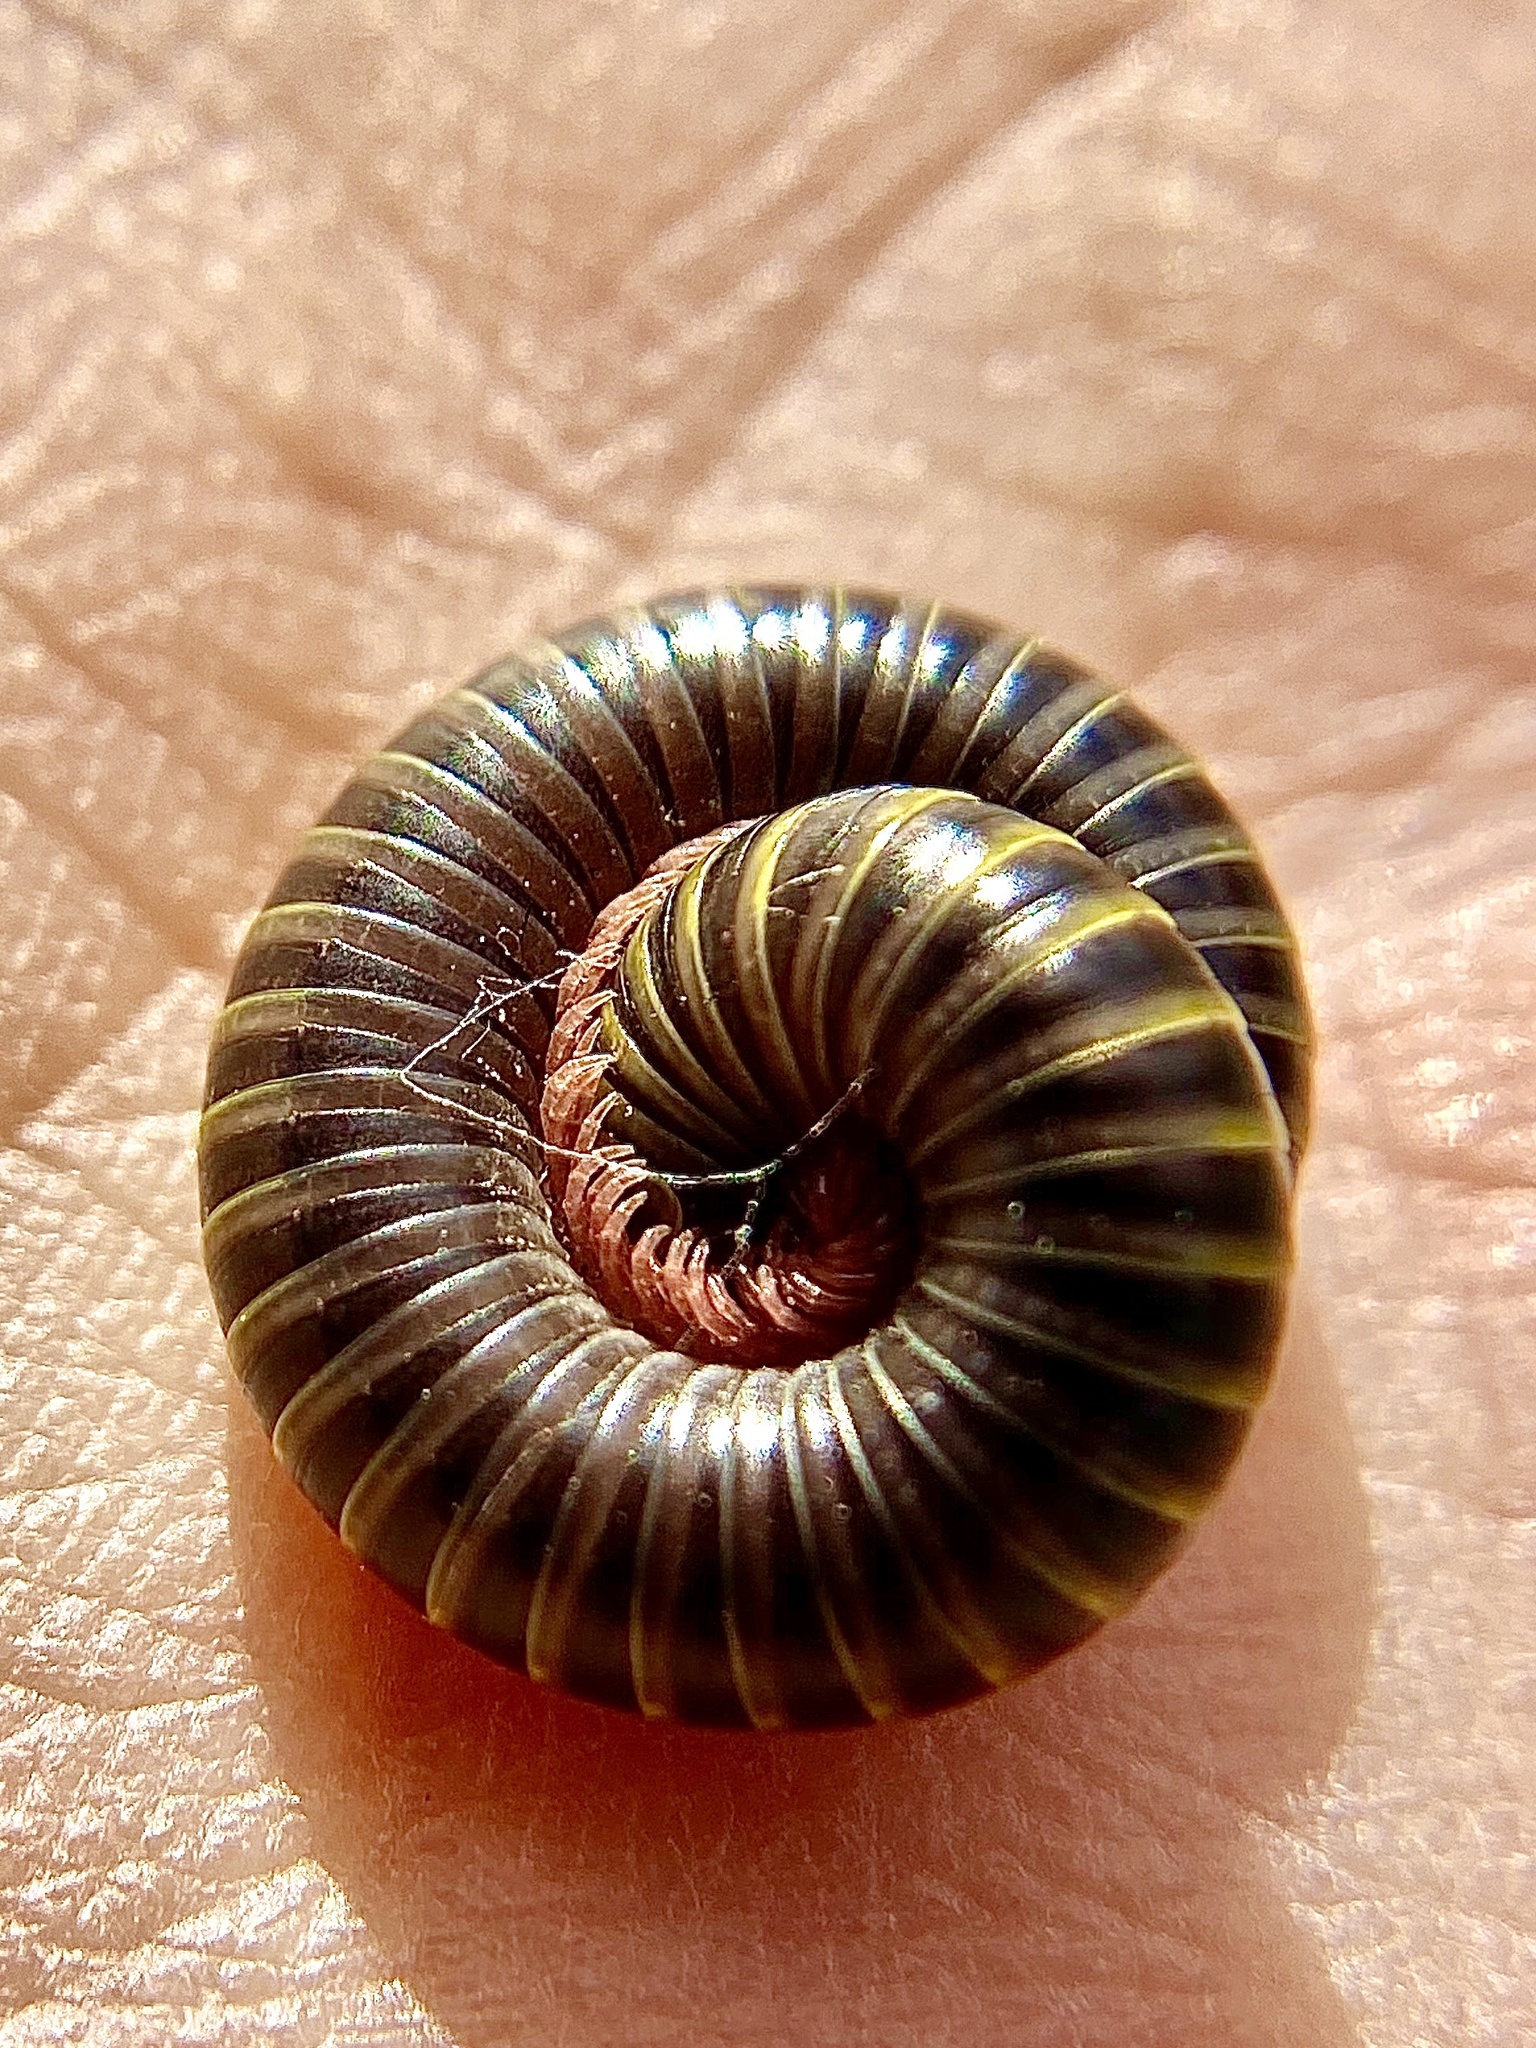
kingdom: Animalia
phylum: Arthropoda
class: Diplopoda
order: Spirobolida
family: Rhinocricidae
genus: Anadenobolus
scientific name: Anadenobolus monilicornis
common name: Caribbean millipede
